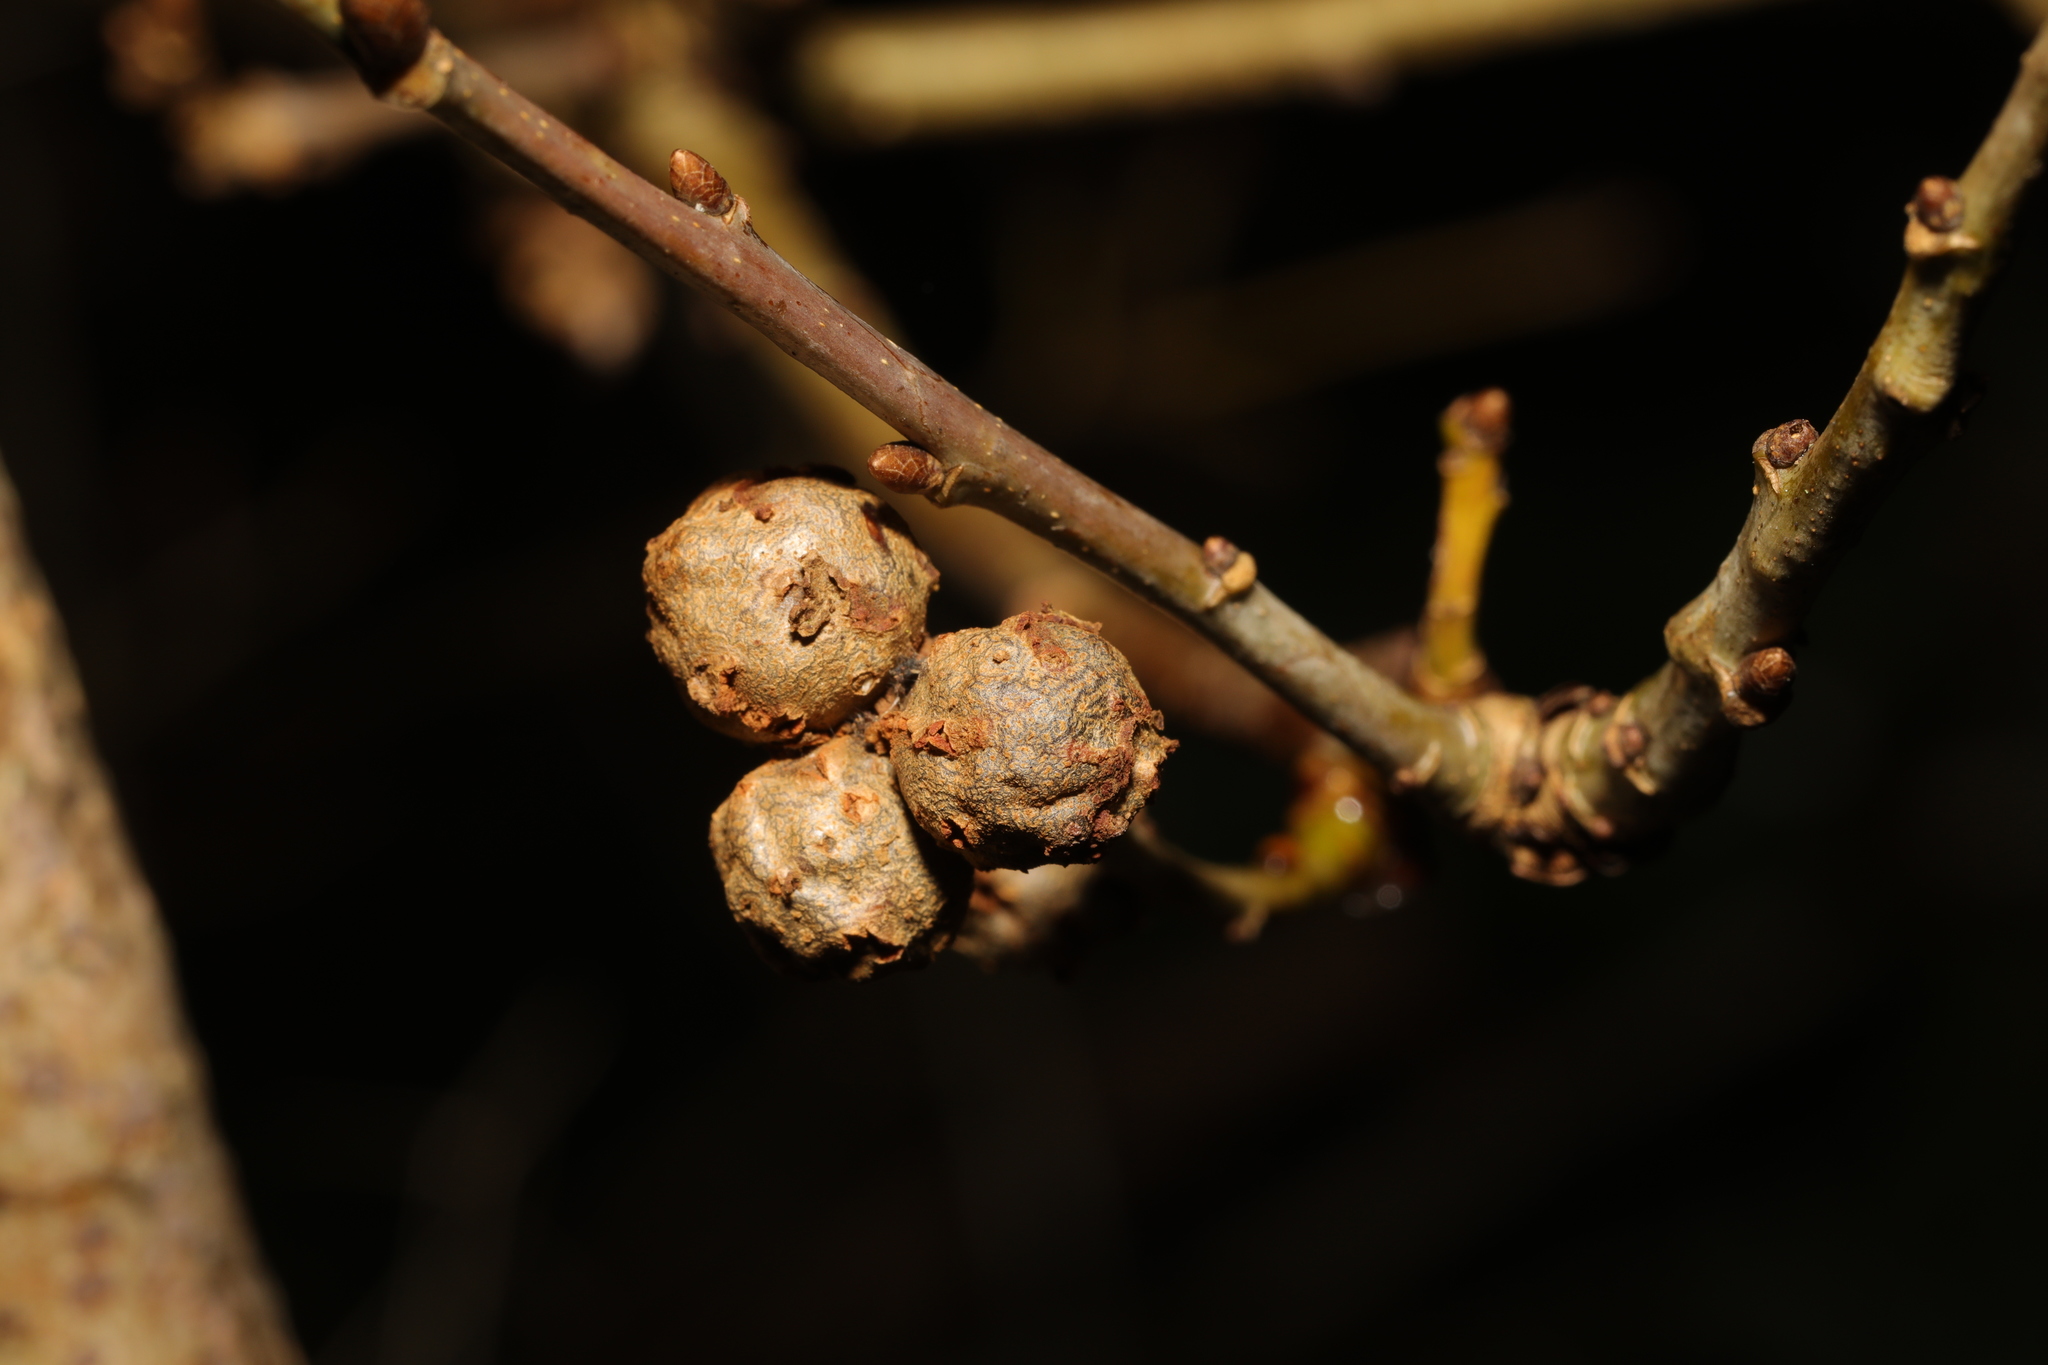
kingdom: Animalia
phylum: Arthropoda
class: Insecta
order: Hymenoptera
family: Cynipidae
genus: Andricus
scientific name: Andricus lignicolus
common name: Cola-nut gall
